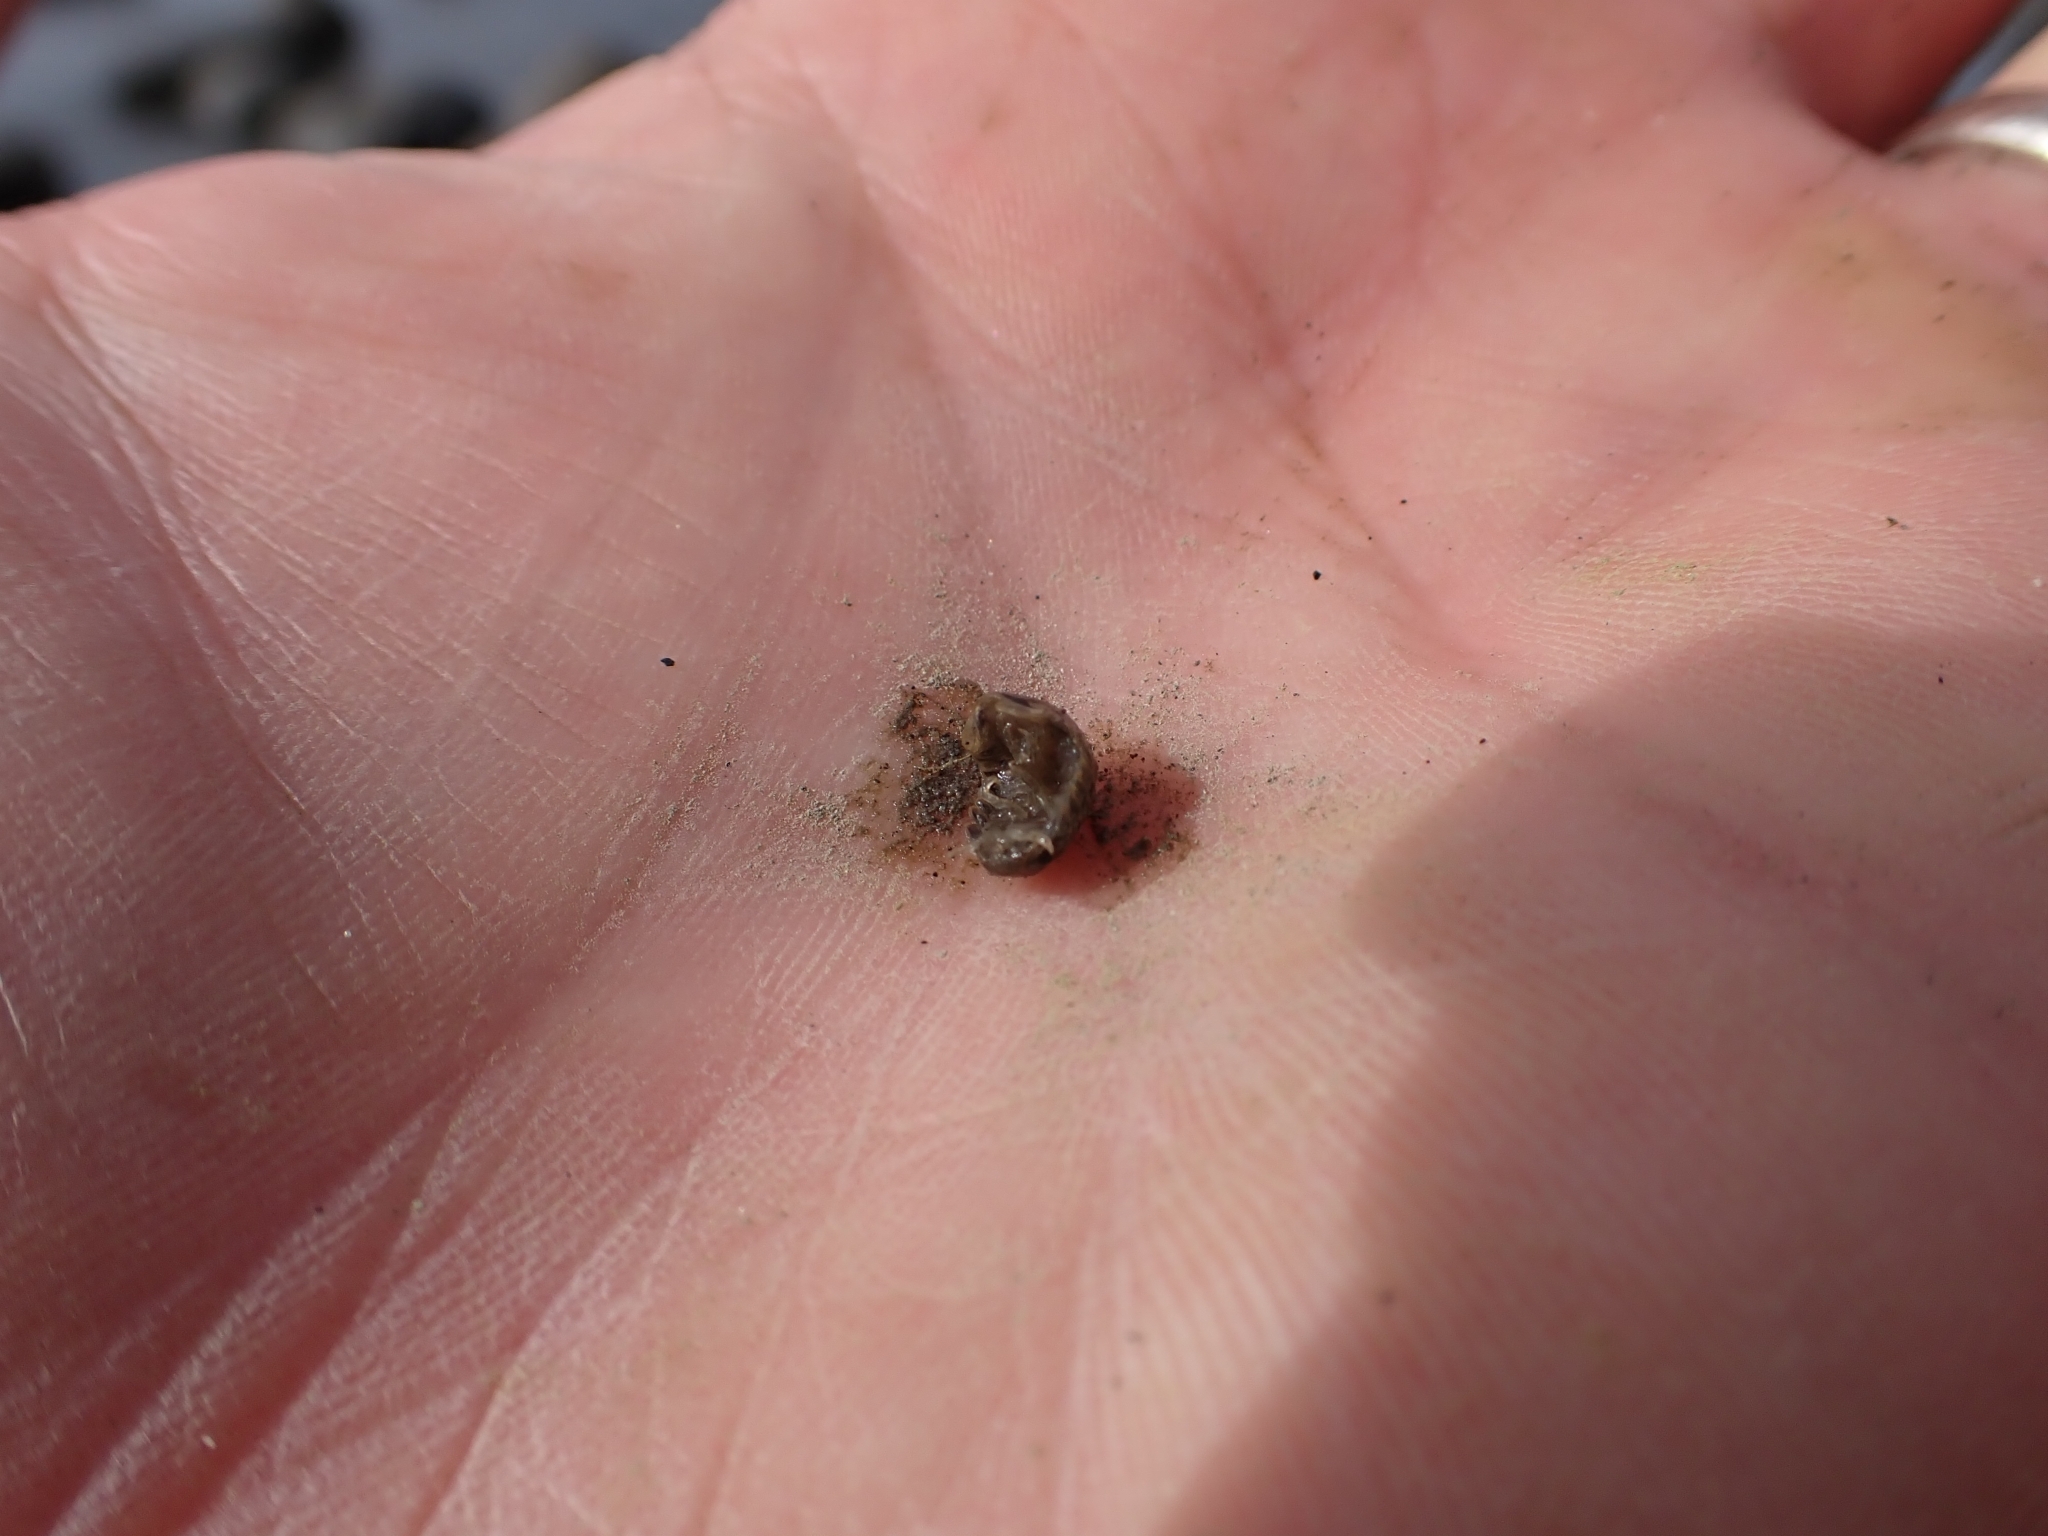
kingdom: Animalia
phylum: Arthropoda
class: Malacostraca
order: Isopoda
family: Sphaeromatidae
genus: Gnorimosphaeroma
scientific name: Gnorimosphaeroma oregonense
